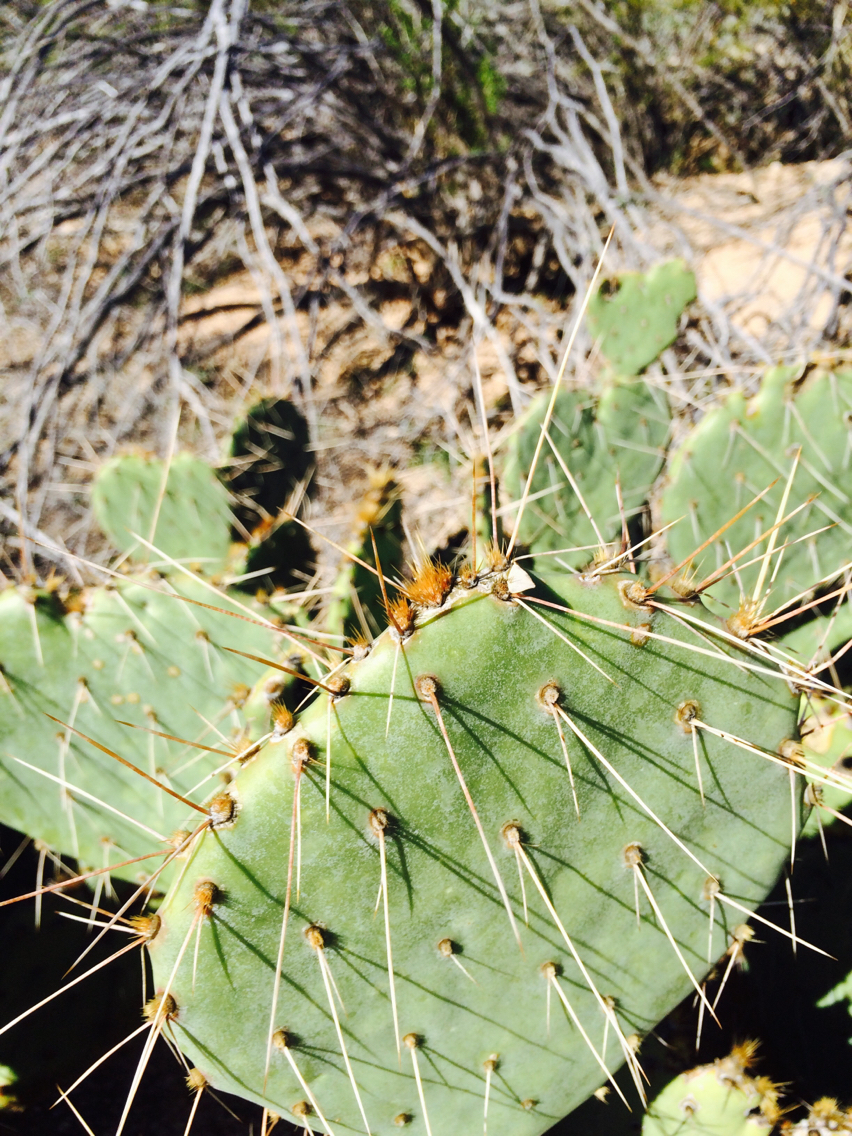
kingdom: Plantae
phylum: Tracheophyta
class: Magnoliopsida
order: Caryophyllales
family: Cactaceae
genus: Opuntia
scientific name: Opuntia engelmannii
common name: Cactus-apple
